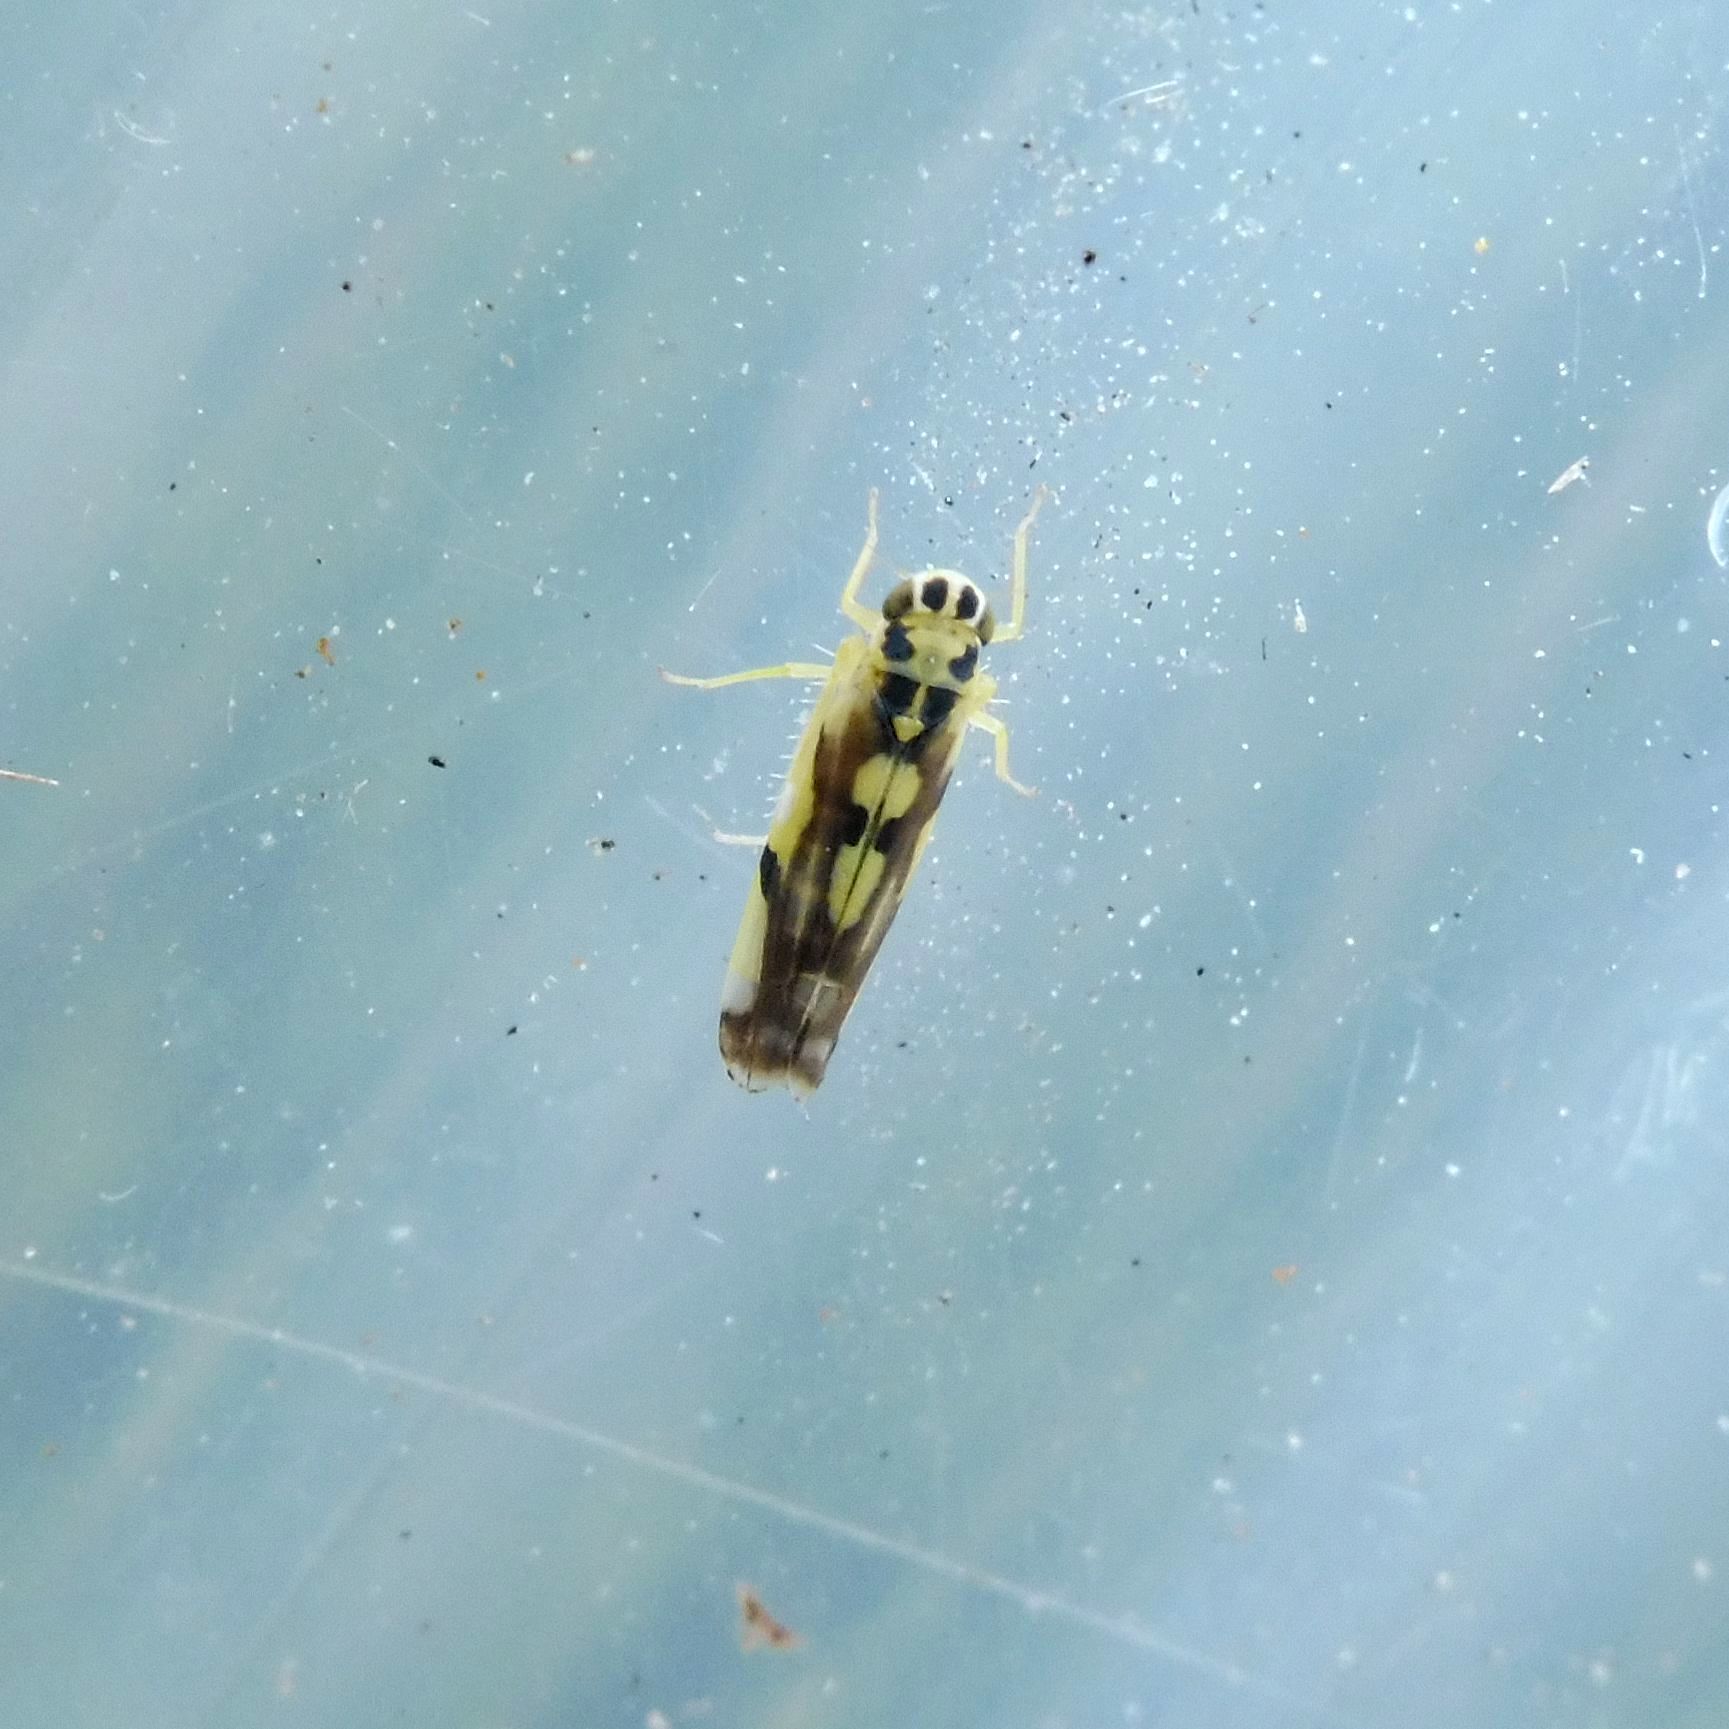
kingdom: Animalia
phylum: Arthropoda
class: Insecta
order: Hemiptera
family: Cicadellidae
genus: Eupteryx
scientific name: Eupteryx aurata
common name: Leafhopper
